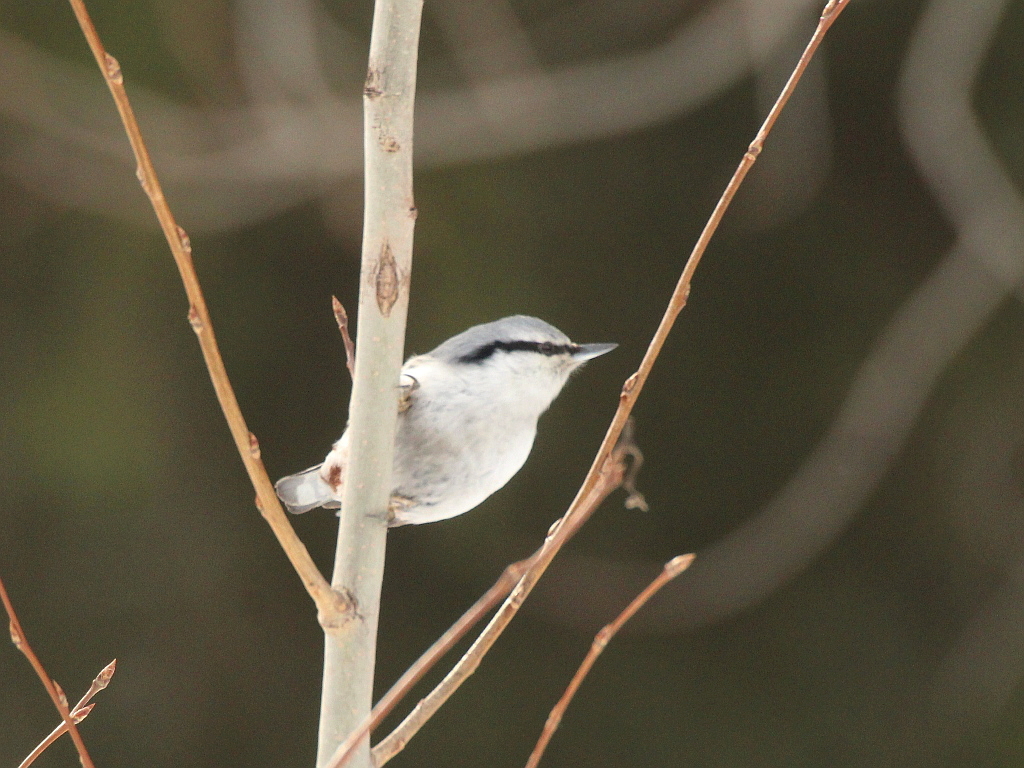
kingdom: Animalia
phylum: Chordata
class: Aves
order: Passeriformes
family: Sittidae
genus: Sitta
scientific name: Sitta europaea
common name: Eurasian nuthatch
